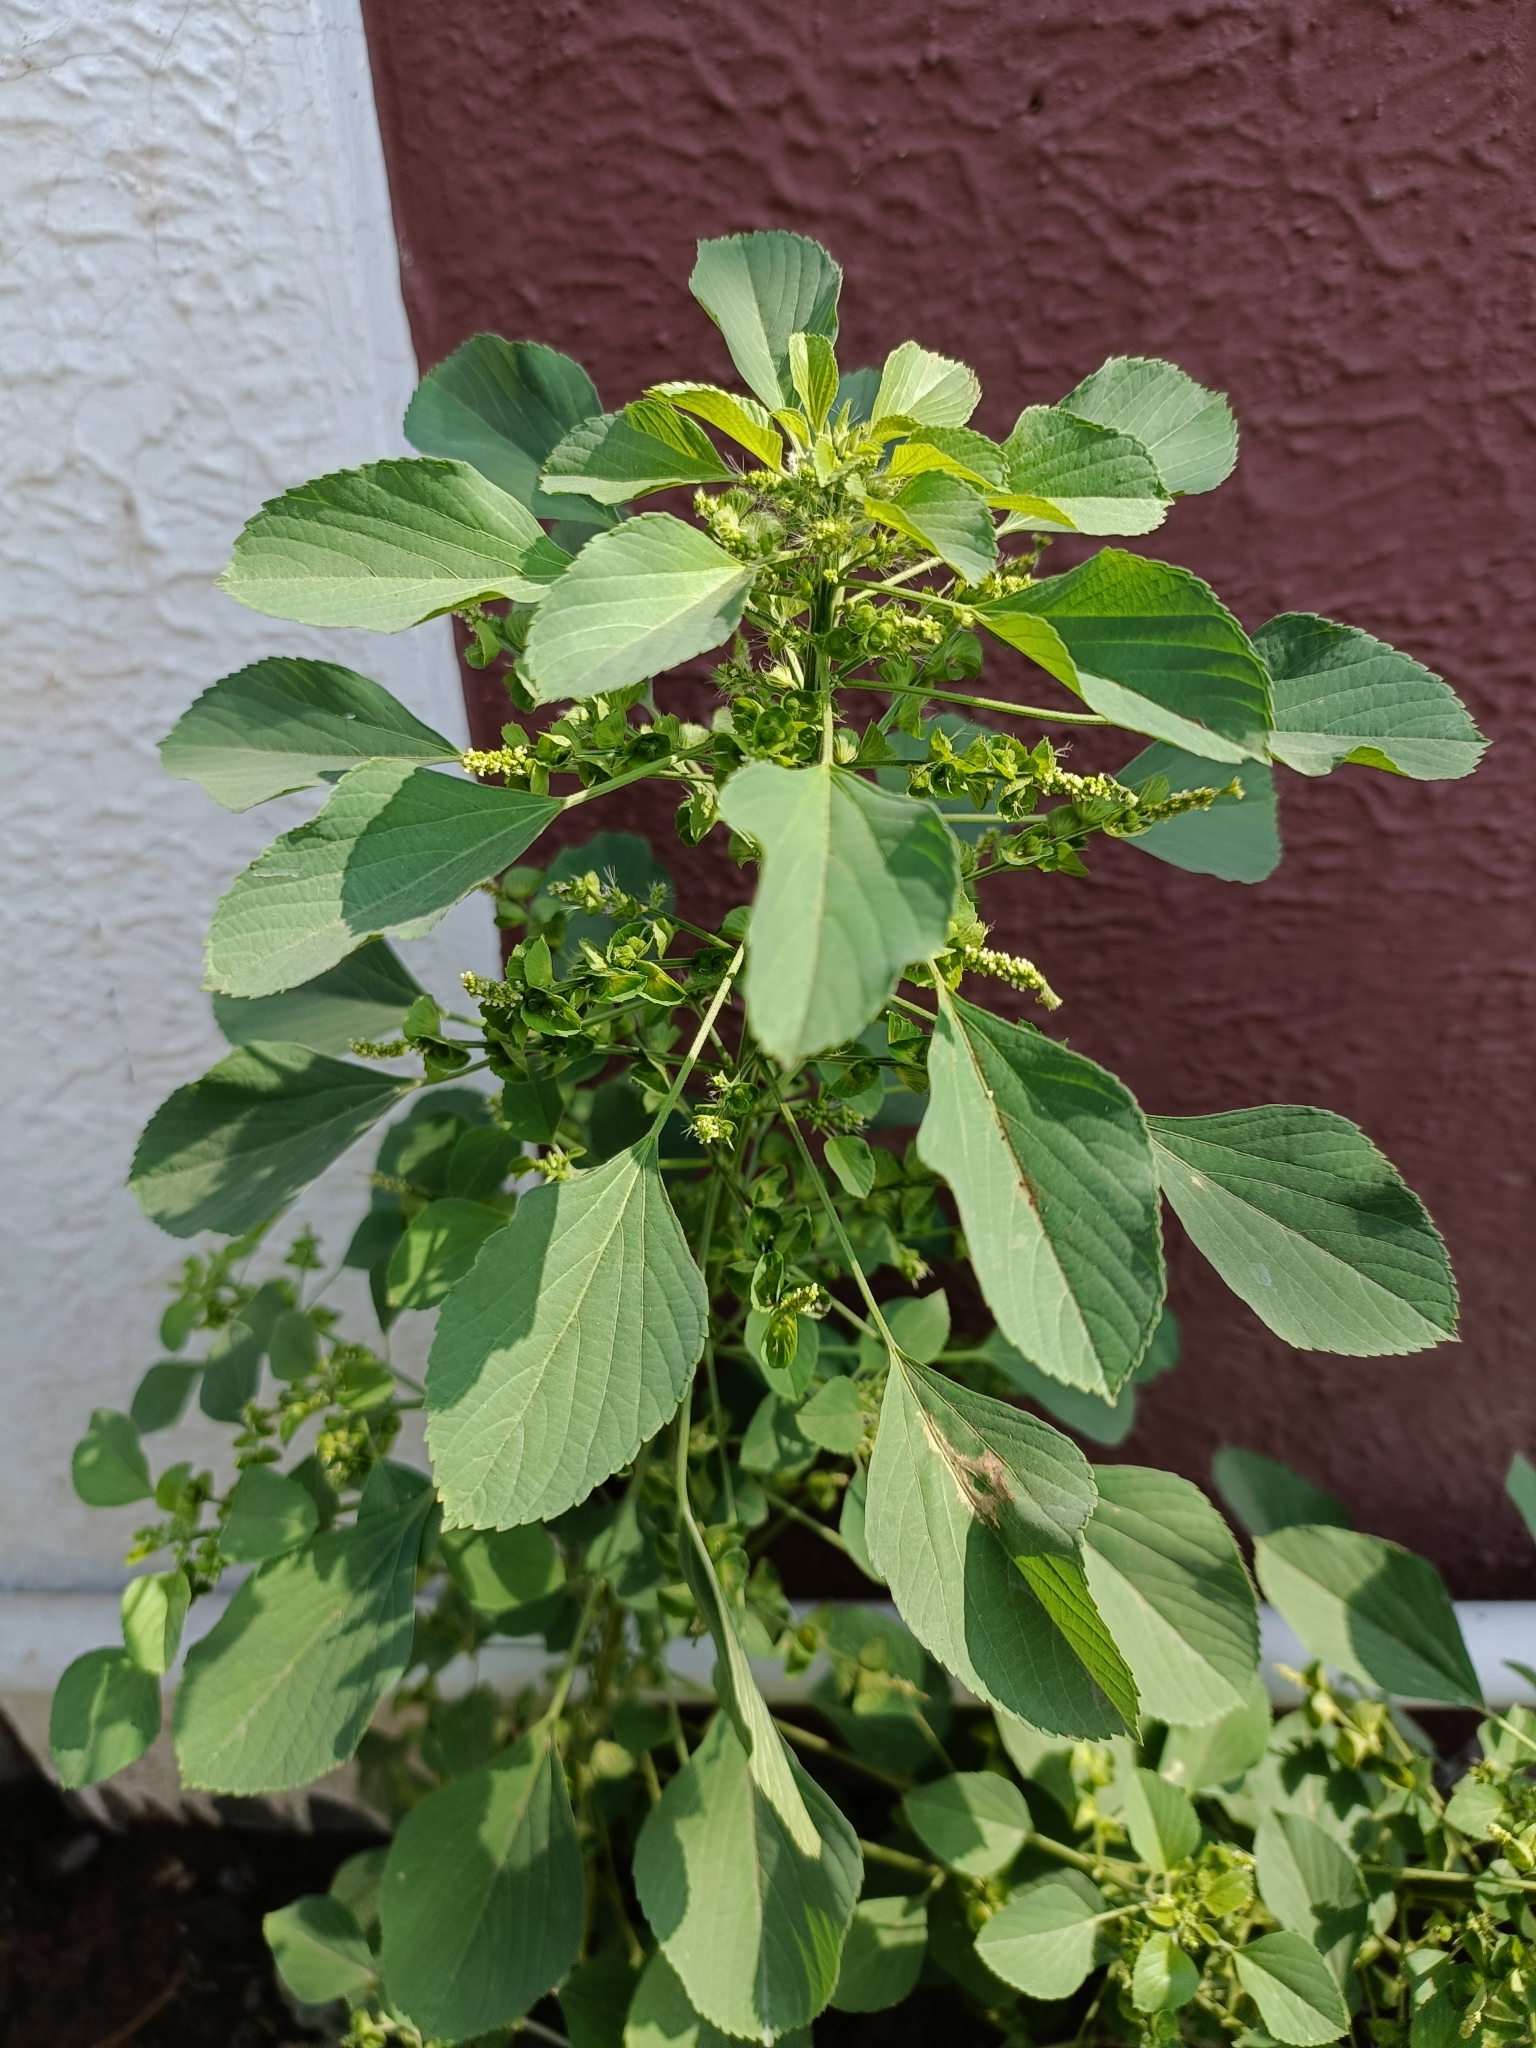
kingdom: Plantae
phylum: Tracheophyta
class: Magnoliopsida
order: Malpighiales
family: Euphorbiaceae
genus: Acalypha
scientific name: Acalypha indica
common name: Indian acalypha
